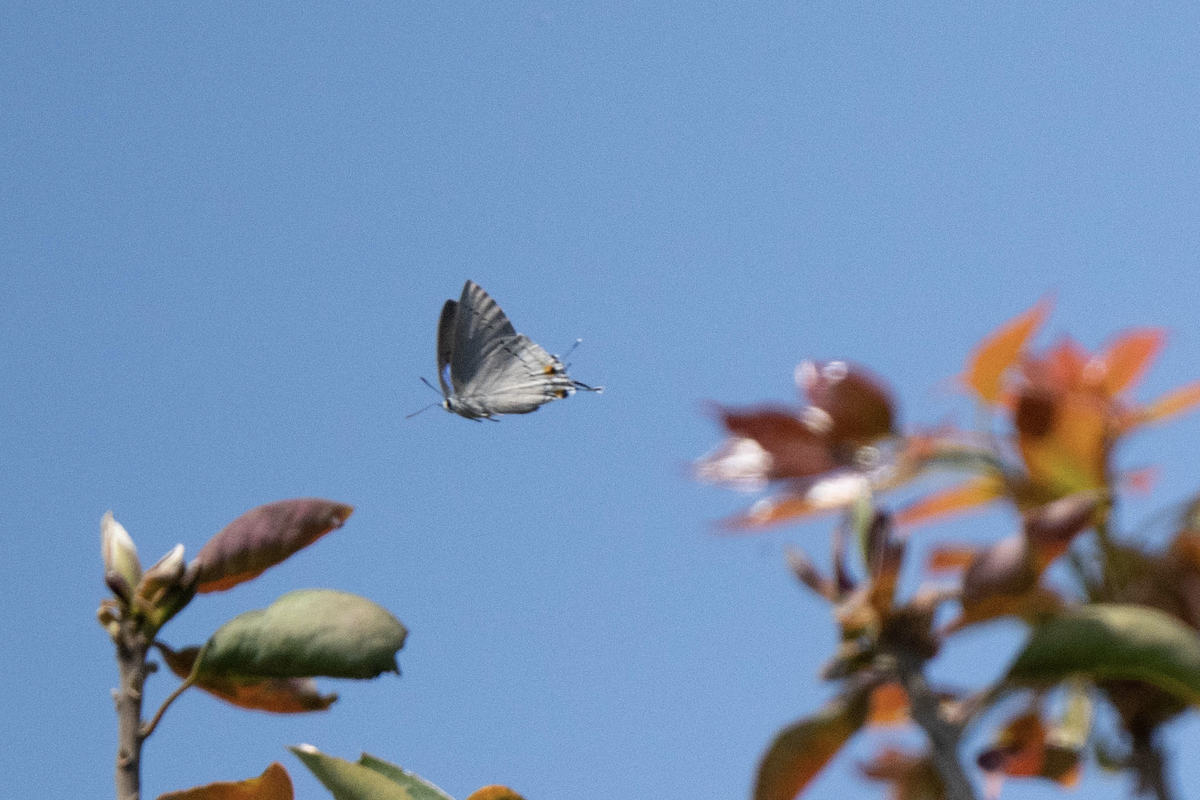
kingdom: Animalia
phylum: Arthropoda
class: Insecta
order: Lepidoptera
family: Lycaenidae
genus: Tajuria
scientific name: Tajuria cippus
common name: Peacock royal
